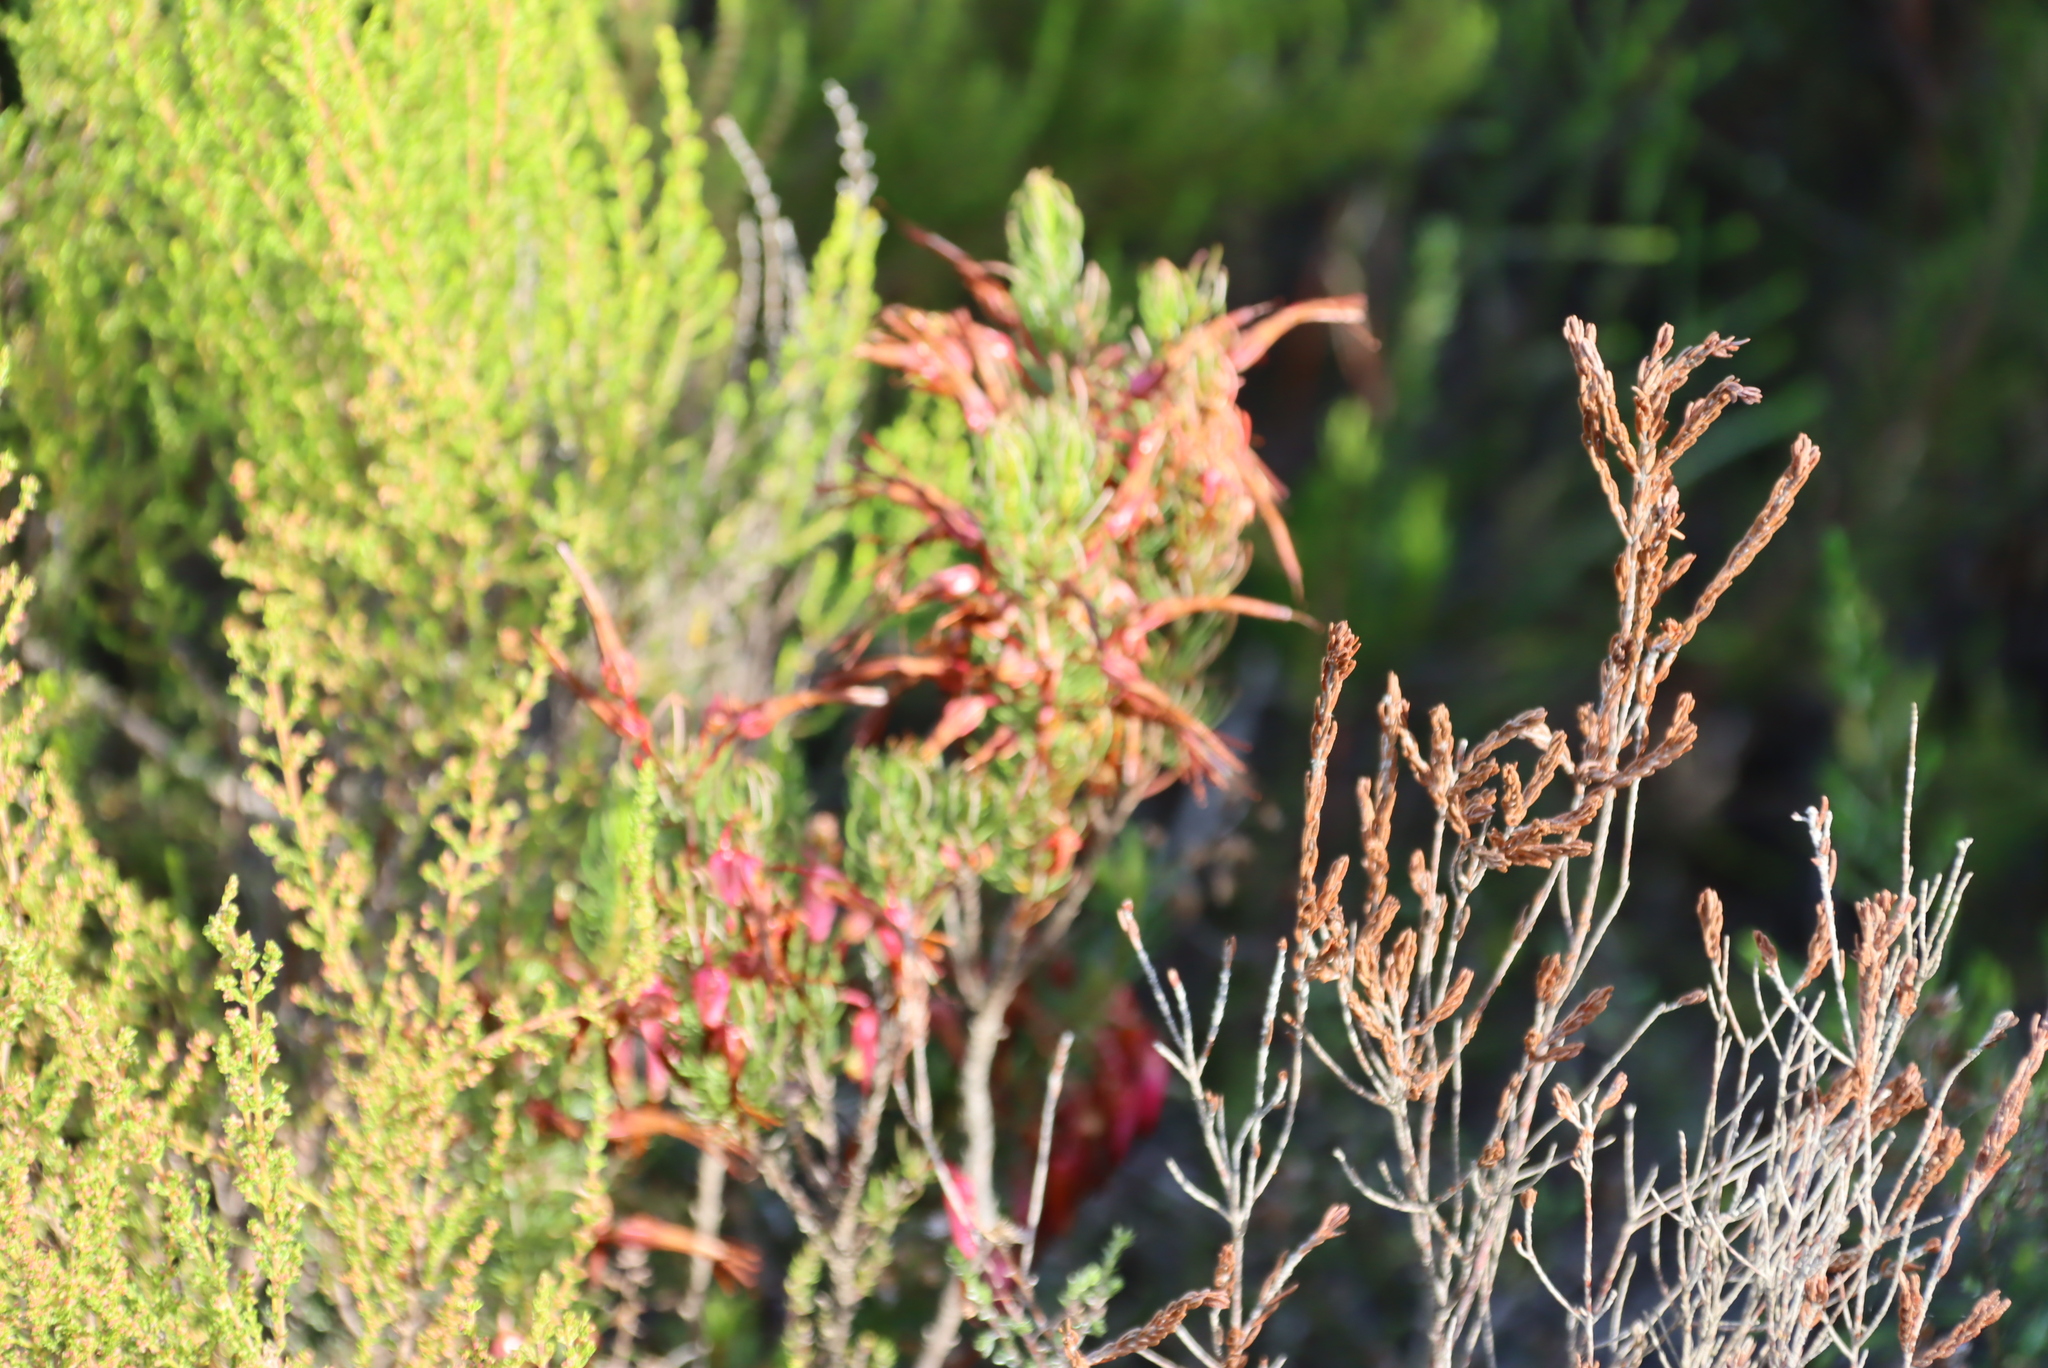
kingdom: Plantae
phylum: Tracheophyta
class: Magnoliopsida
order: Ericales
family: Ericaceae
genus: Erica
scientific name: Erica plukenetii
